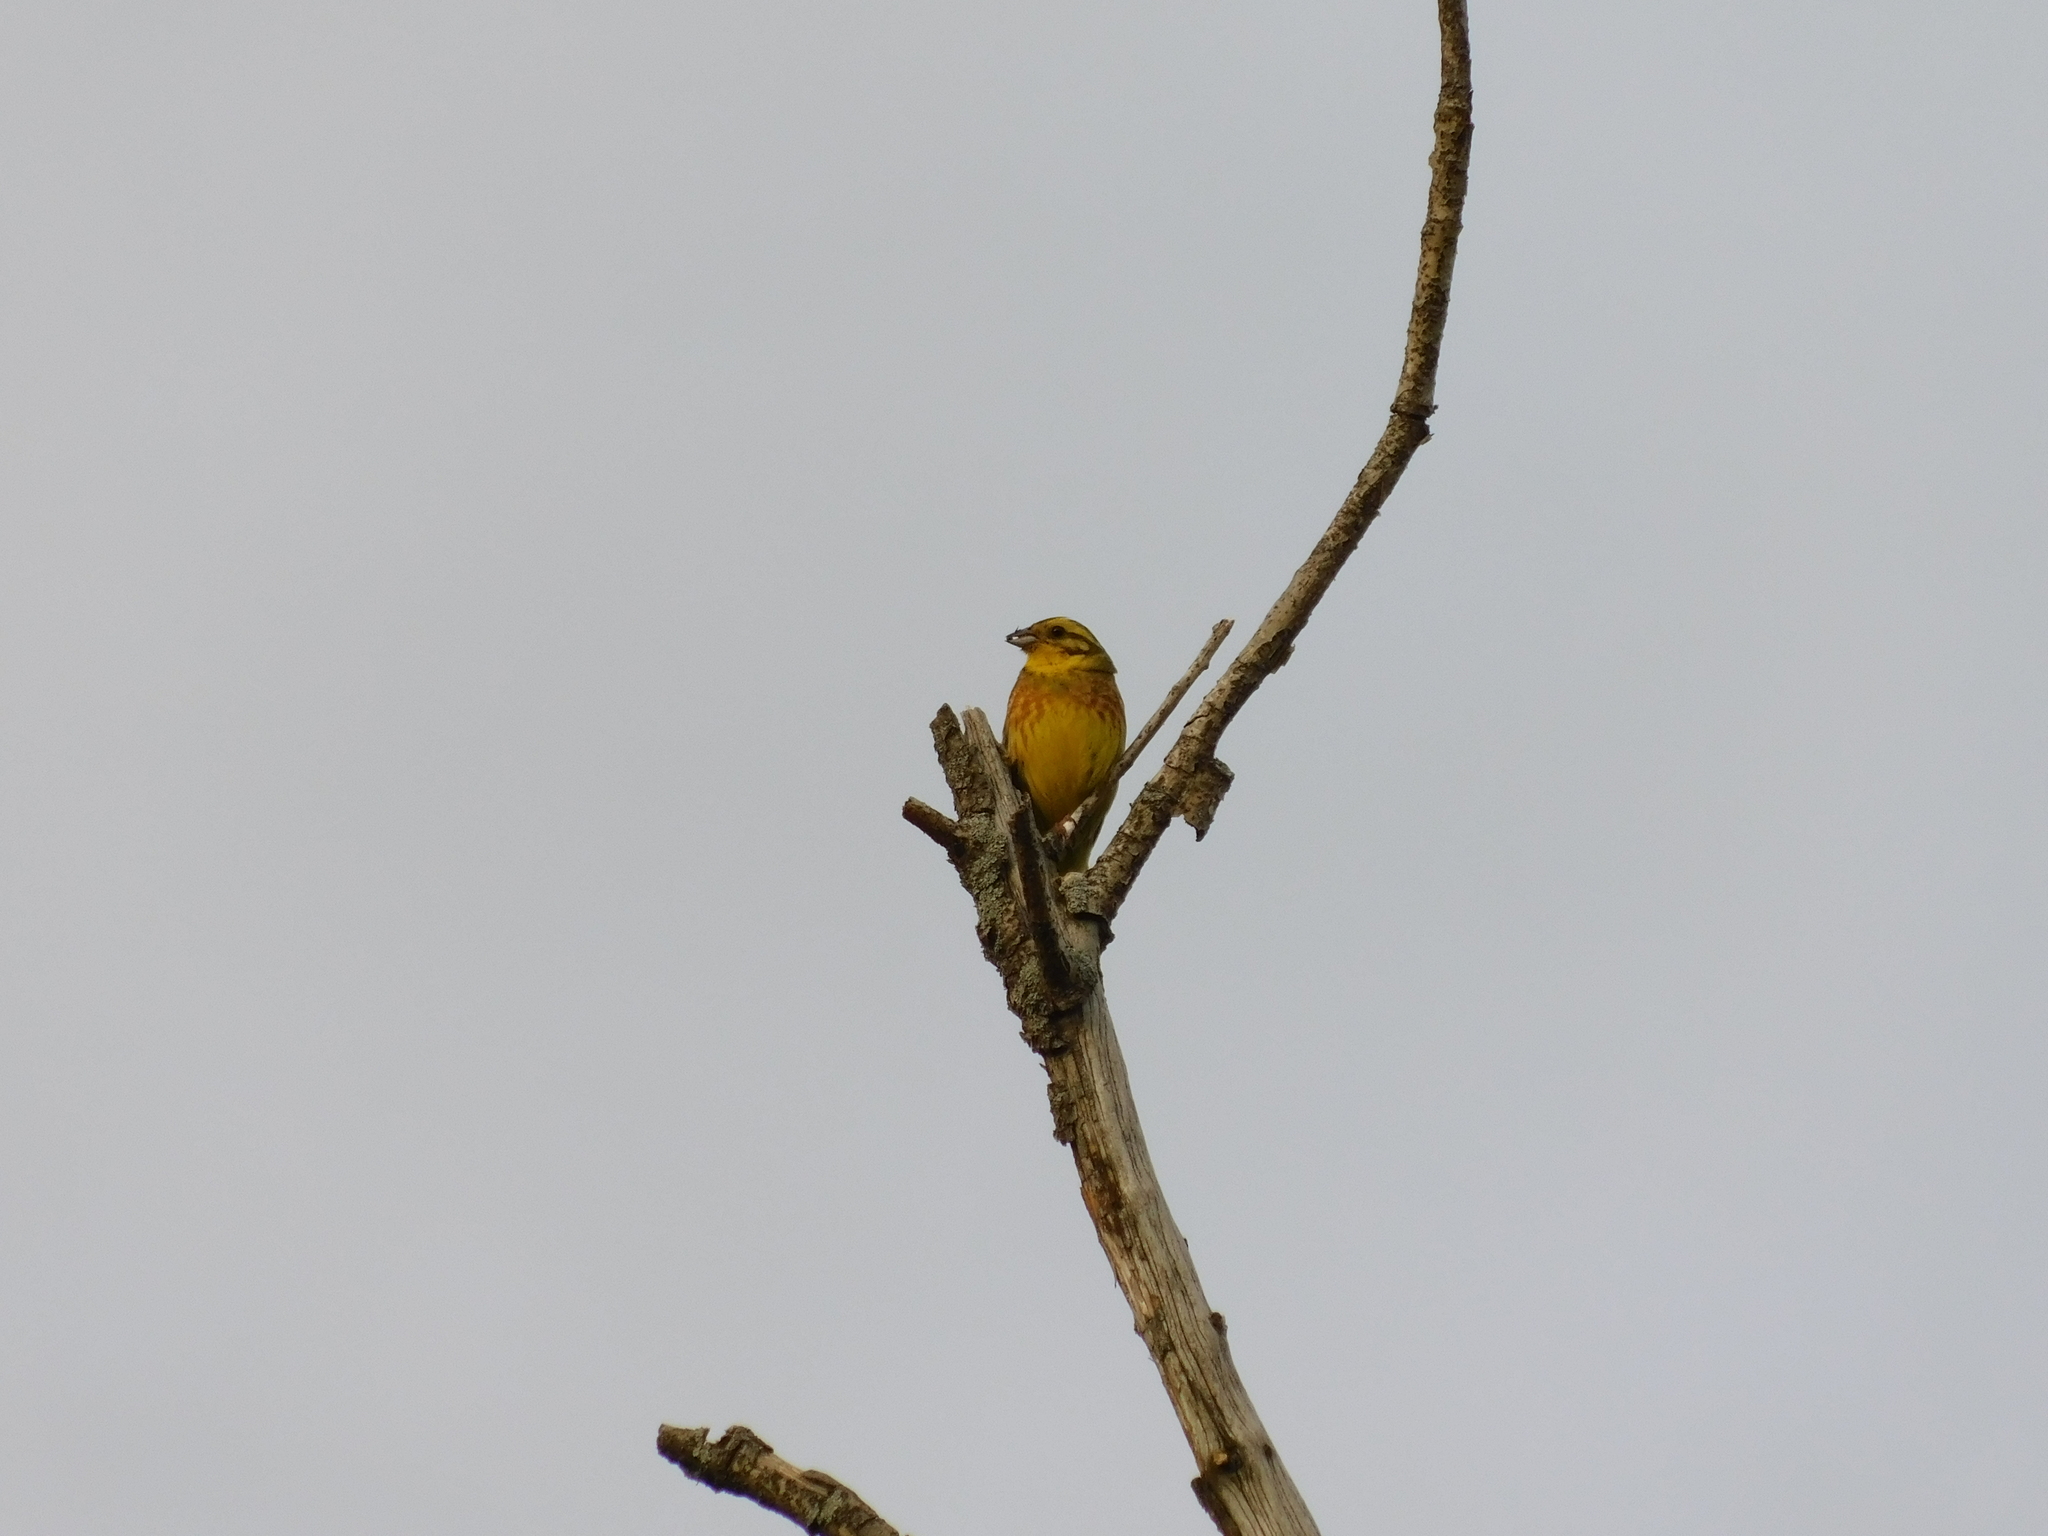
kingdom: Animalia
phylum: Chordata
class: Aves
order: Passeriformes
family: Emberizidae
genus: Emberiza
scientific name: Emberiza citrinella
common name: Yellowhammer
